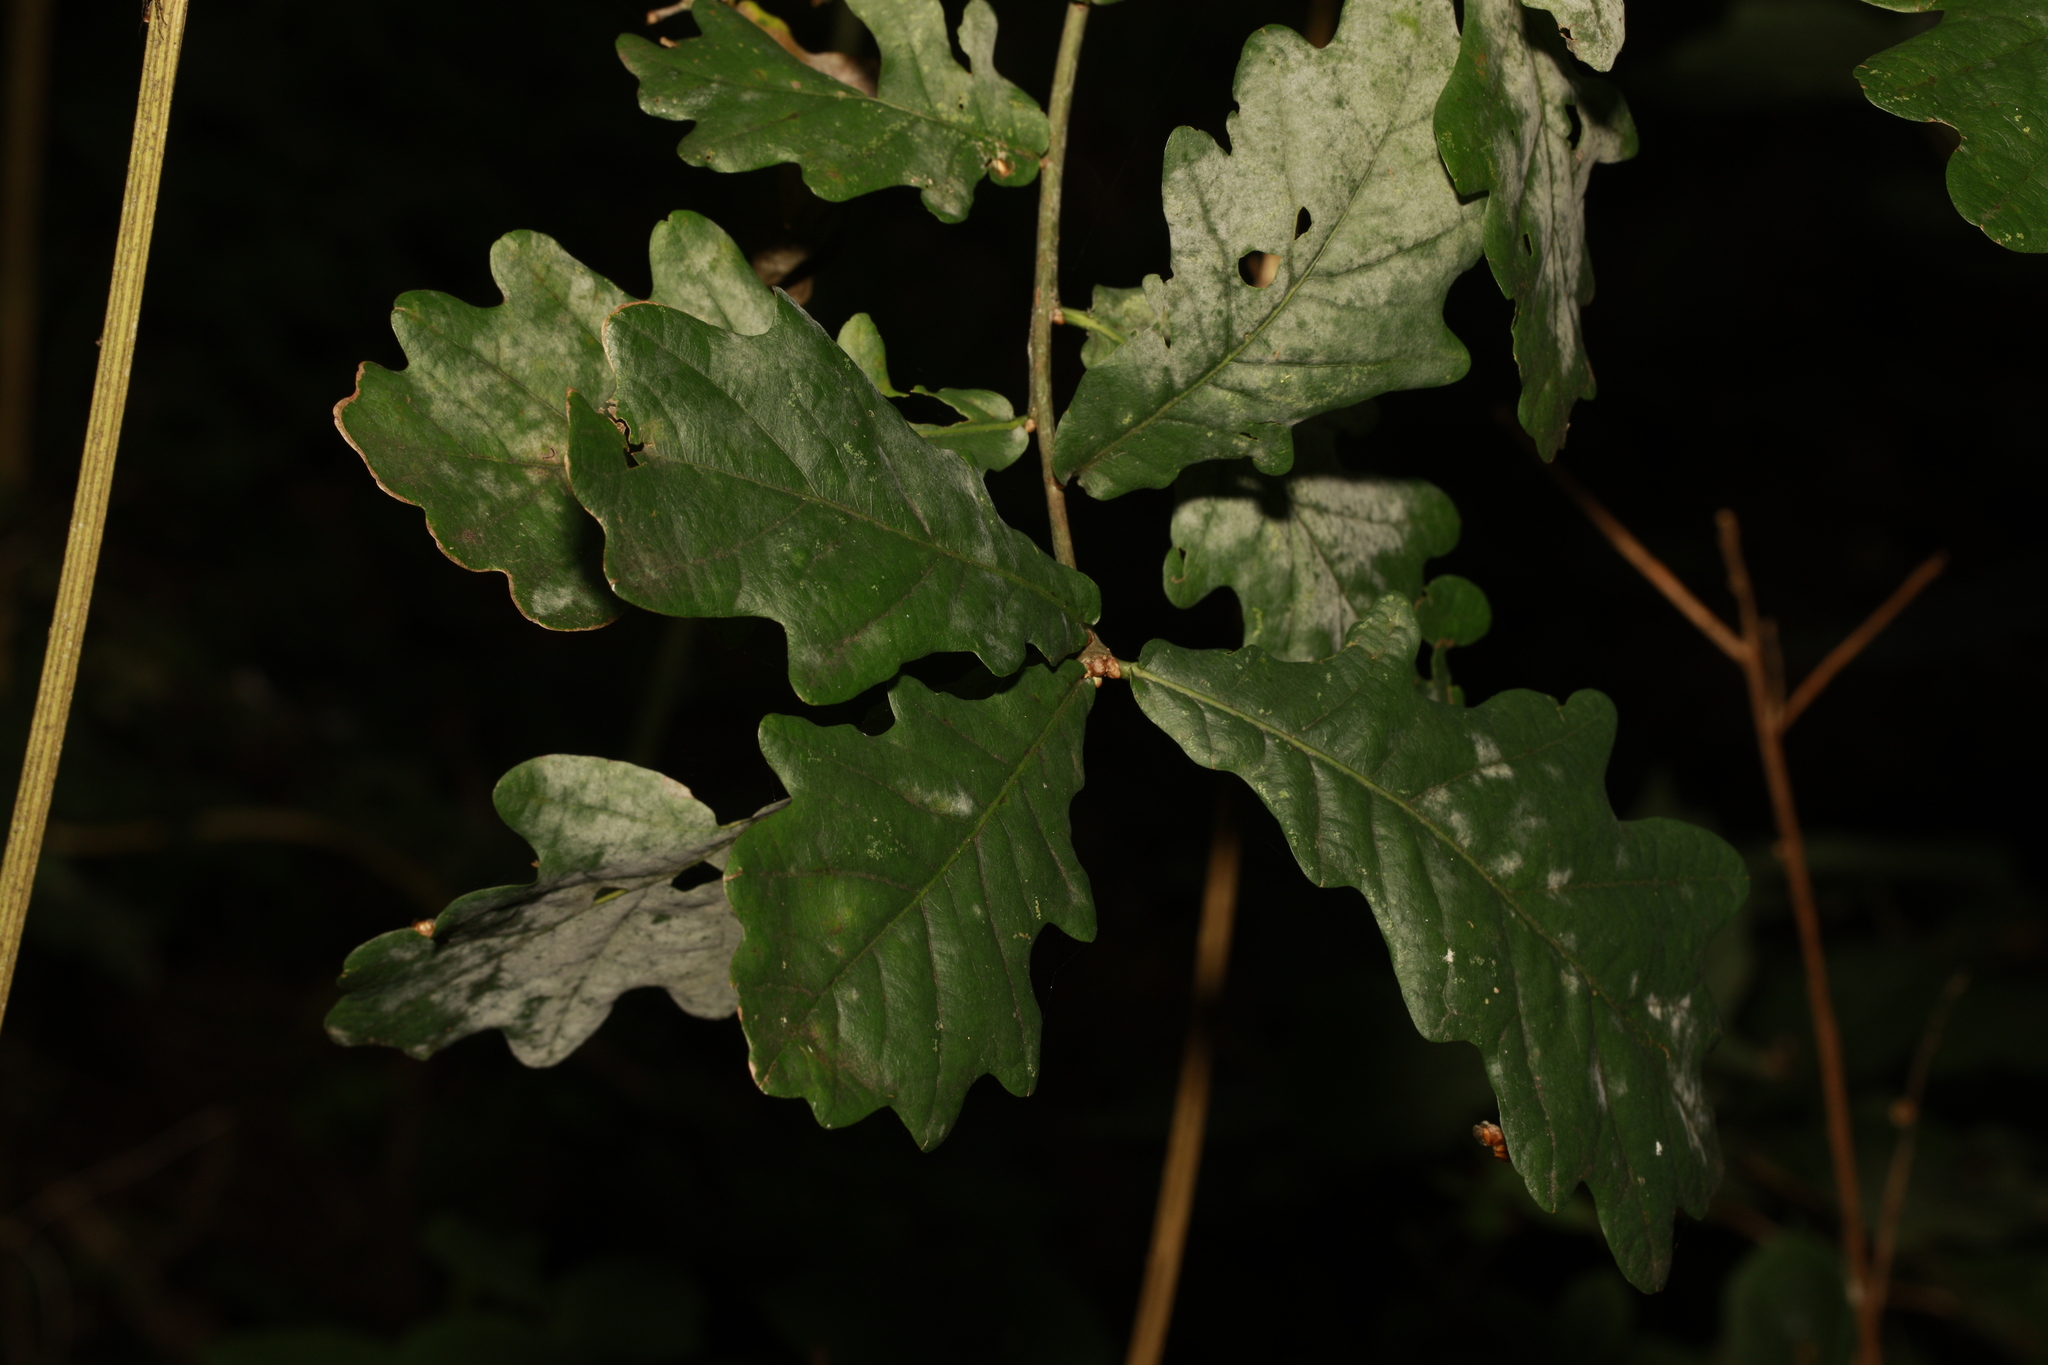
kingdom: Plantae
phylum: Tracheophyta
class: Magnoliopsida
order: Fagales
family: Fagaceae
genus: Quercus
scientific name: Quercus robur
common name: Pedunculate oak
